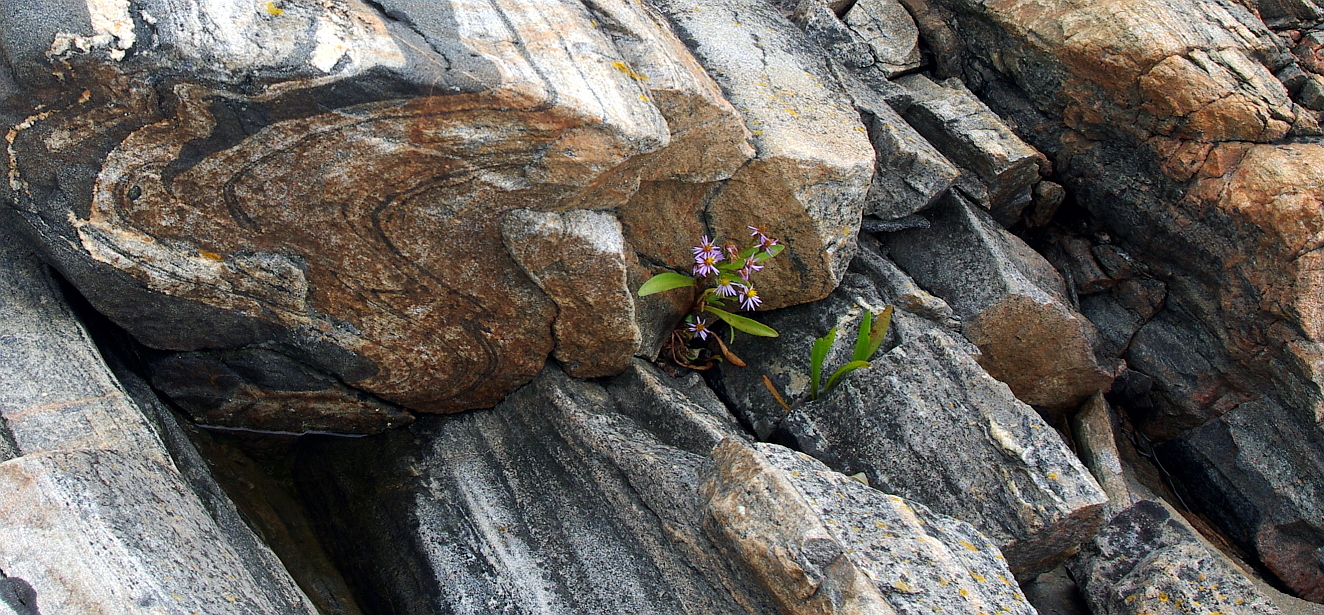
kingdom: Plantae
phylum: Tracheophyta
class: Magnoliopsida
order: Asterales
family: Asteraceae
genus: Tripolium
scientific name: Tripolium pannonicum
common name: Sea aster
